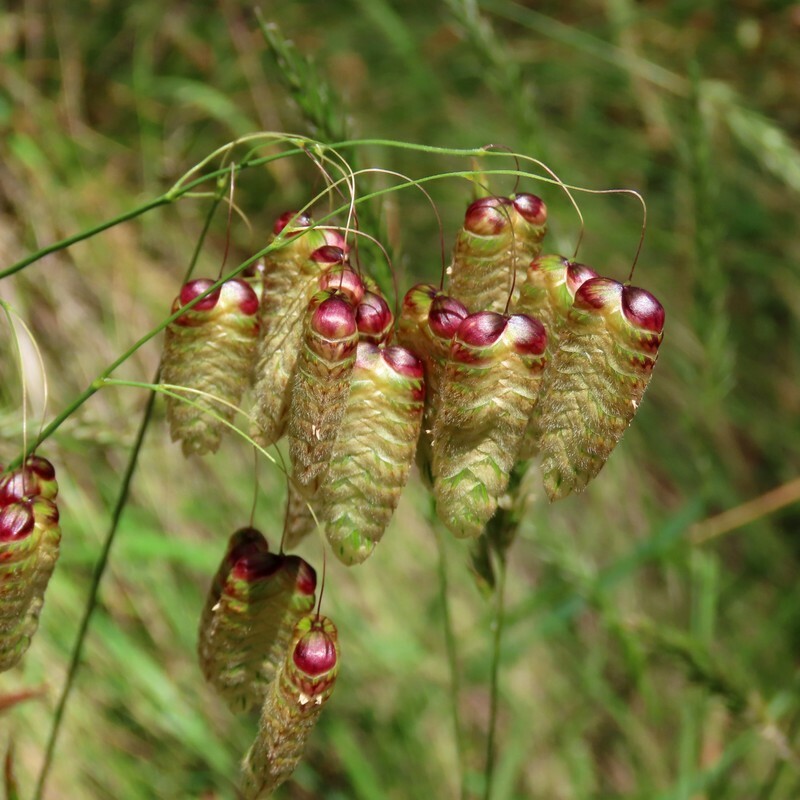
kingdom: Plantae
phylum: Tracheophyta
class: Liliopsida
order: Poales
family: Poaceae
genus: Briza
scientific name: Briza maxima
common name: Big quakinggrass
